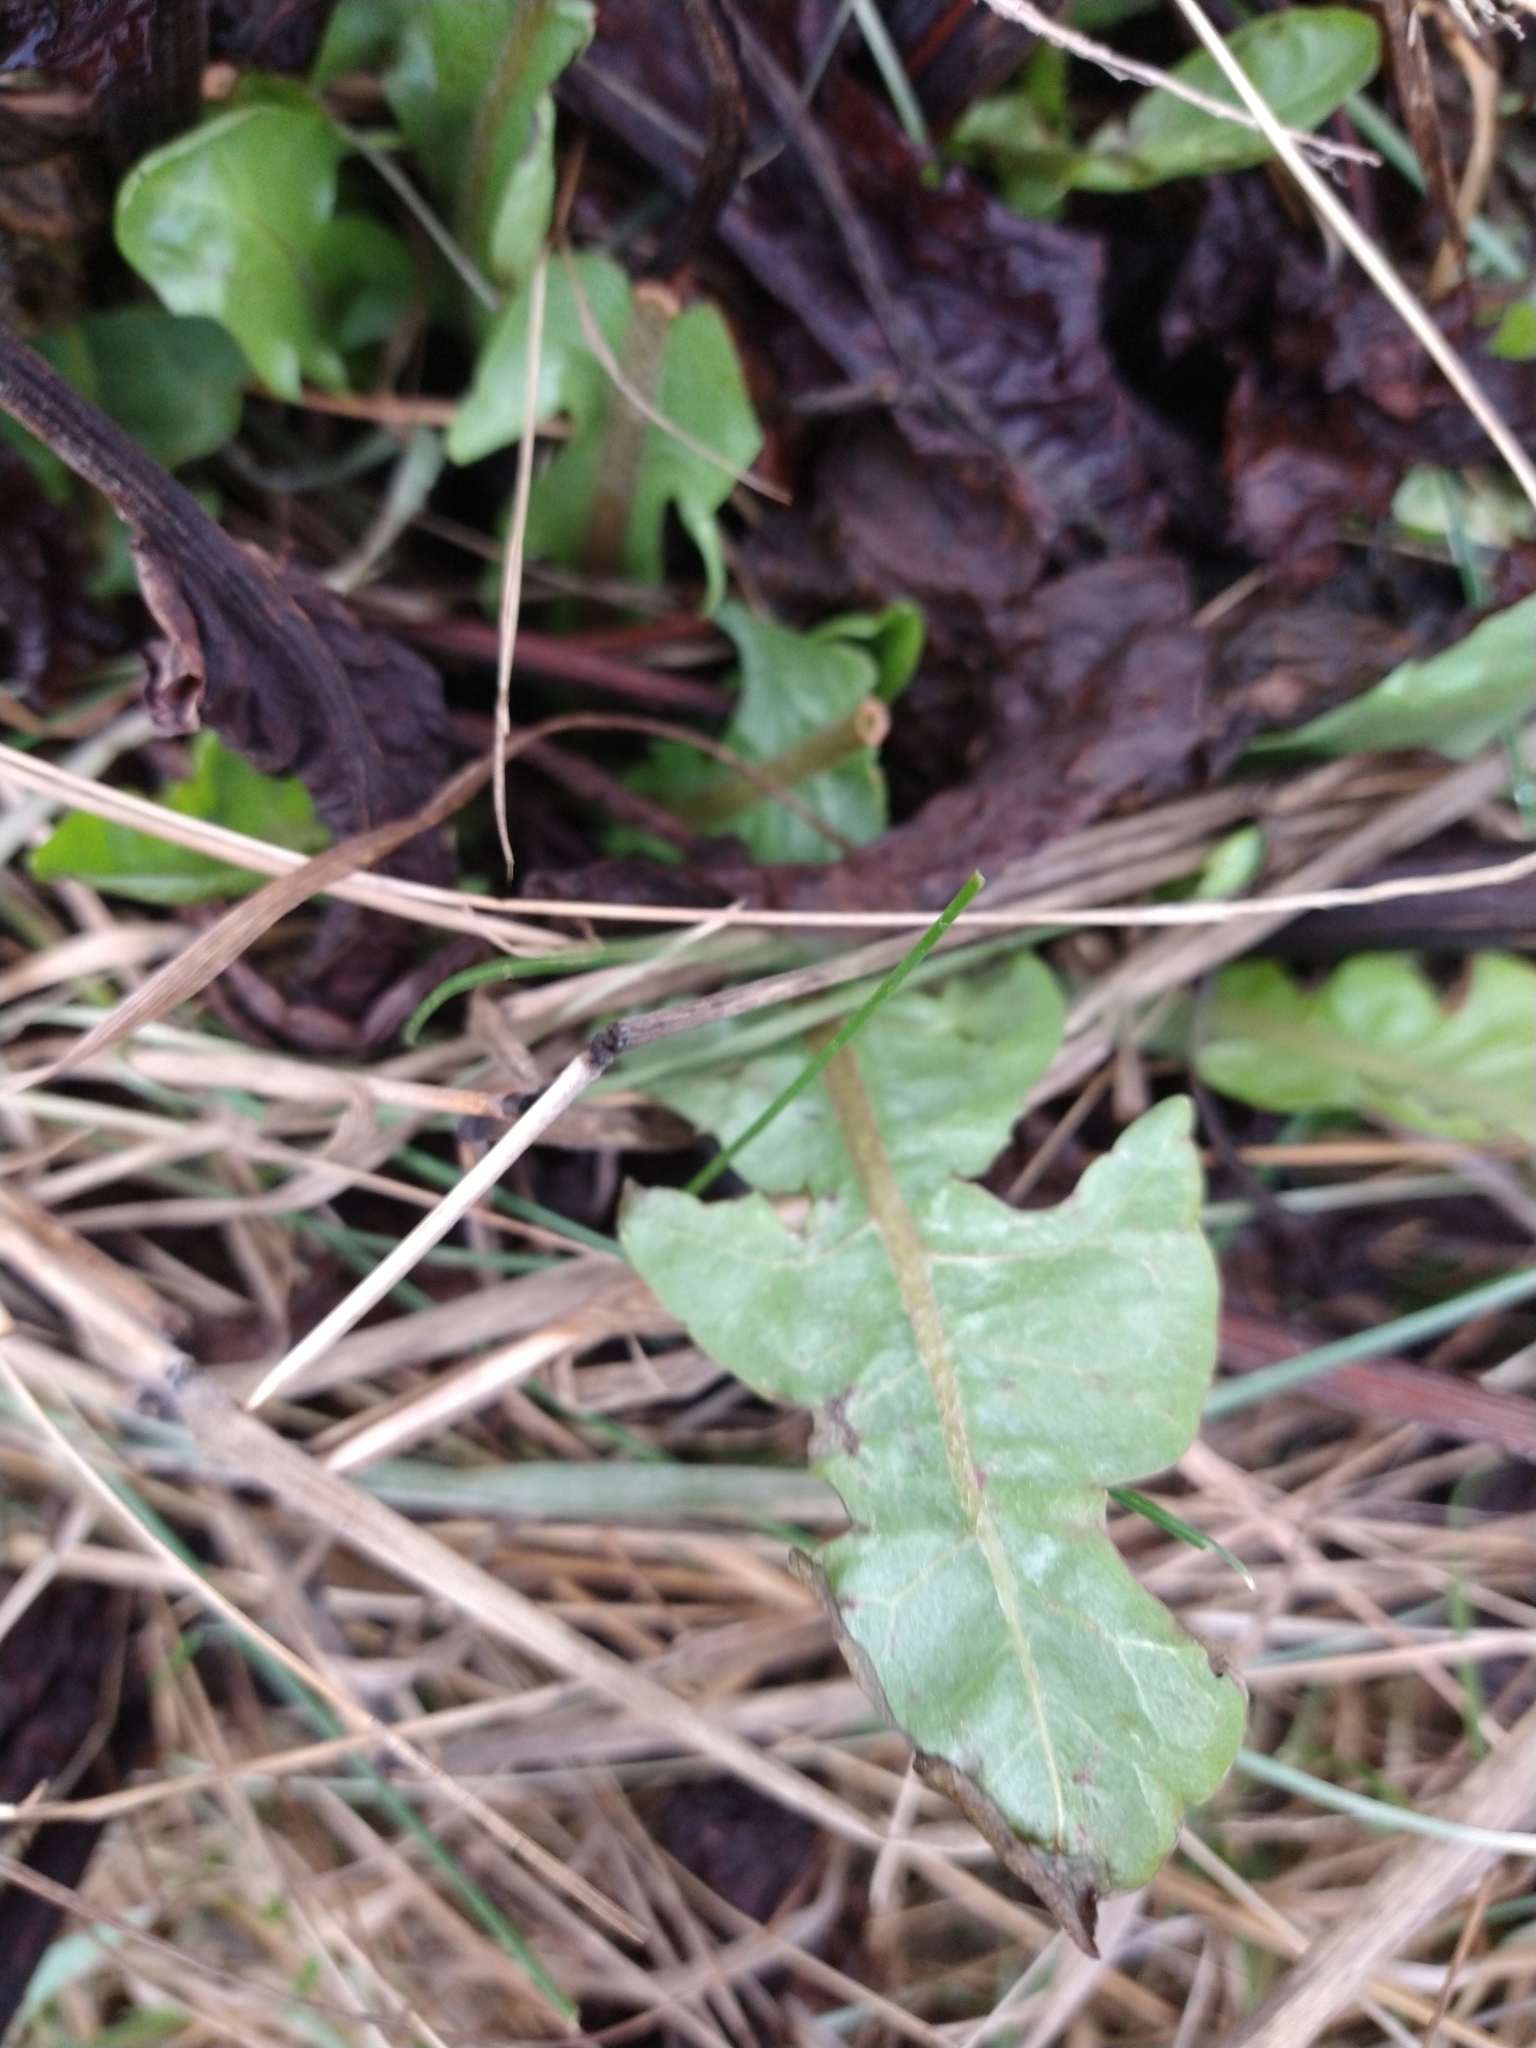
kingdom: Plantae
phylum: Tracheophyta
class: Magnoliopsida
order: Asterales
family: Asteraceae
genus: Taraxacum
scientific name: Taraxacum officinale
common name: Common dandelion
